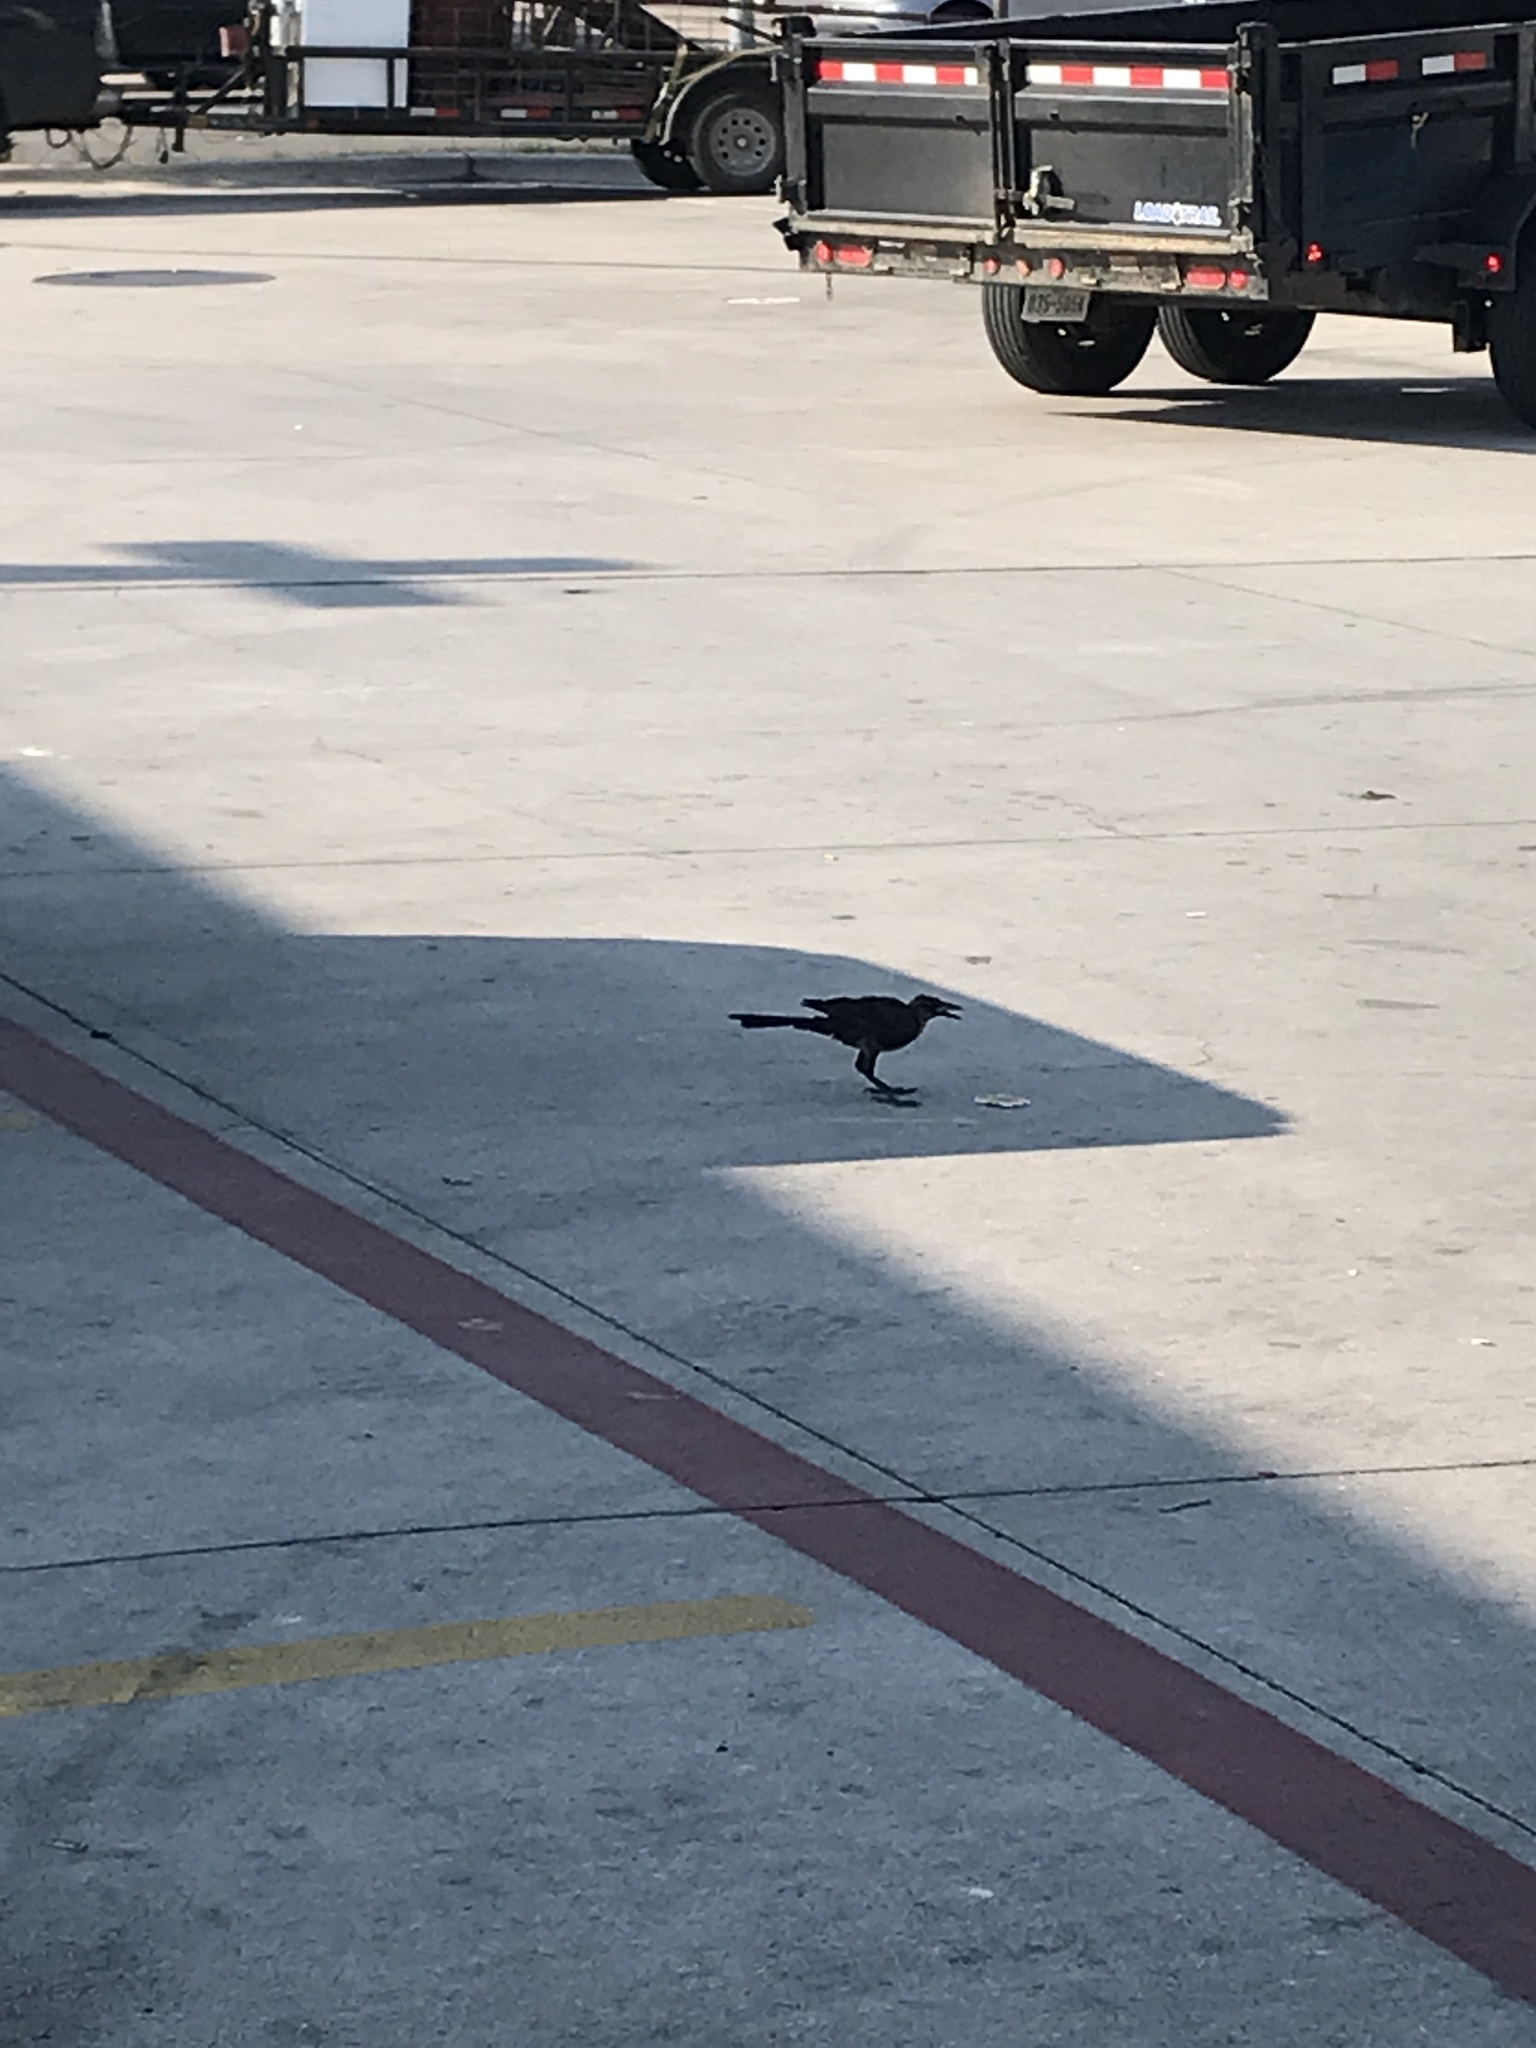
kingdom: Animalia
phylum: Chordata
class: Aves
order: Passeriformes
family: Icteridae
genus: Quiscalus
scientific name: Quiscalus mexicanus
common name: Great-tailed grackle
